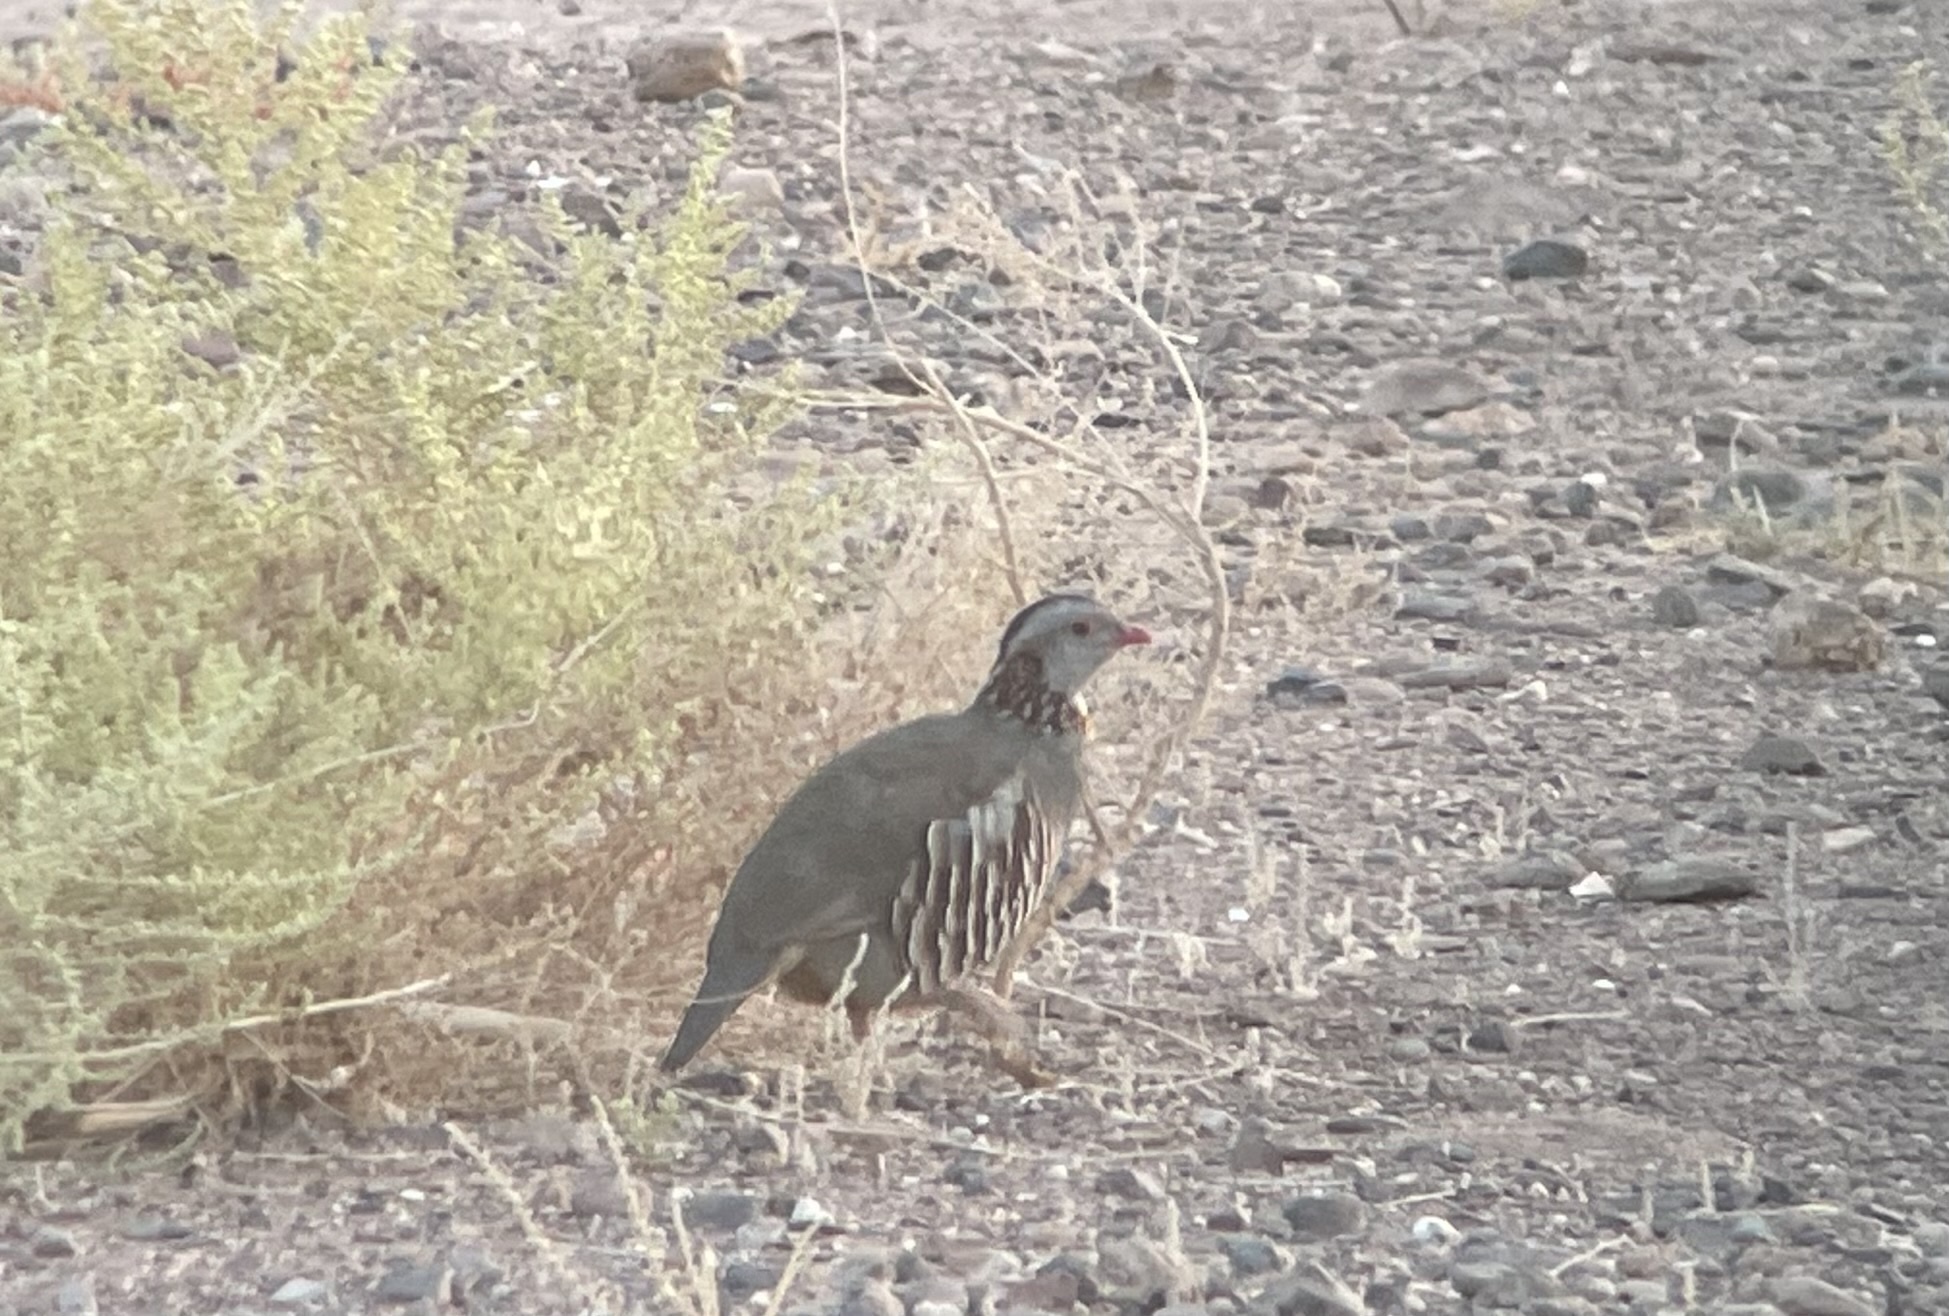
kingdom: Animalia
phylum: Chordata
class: Aves
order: Galliformes
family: Phasianidae
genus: Alectoris
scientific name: Alectoris barbara
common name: Barbary partridge
